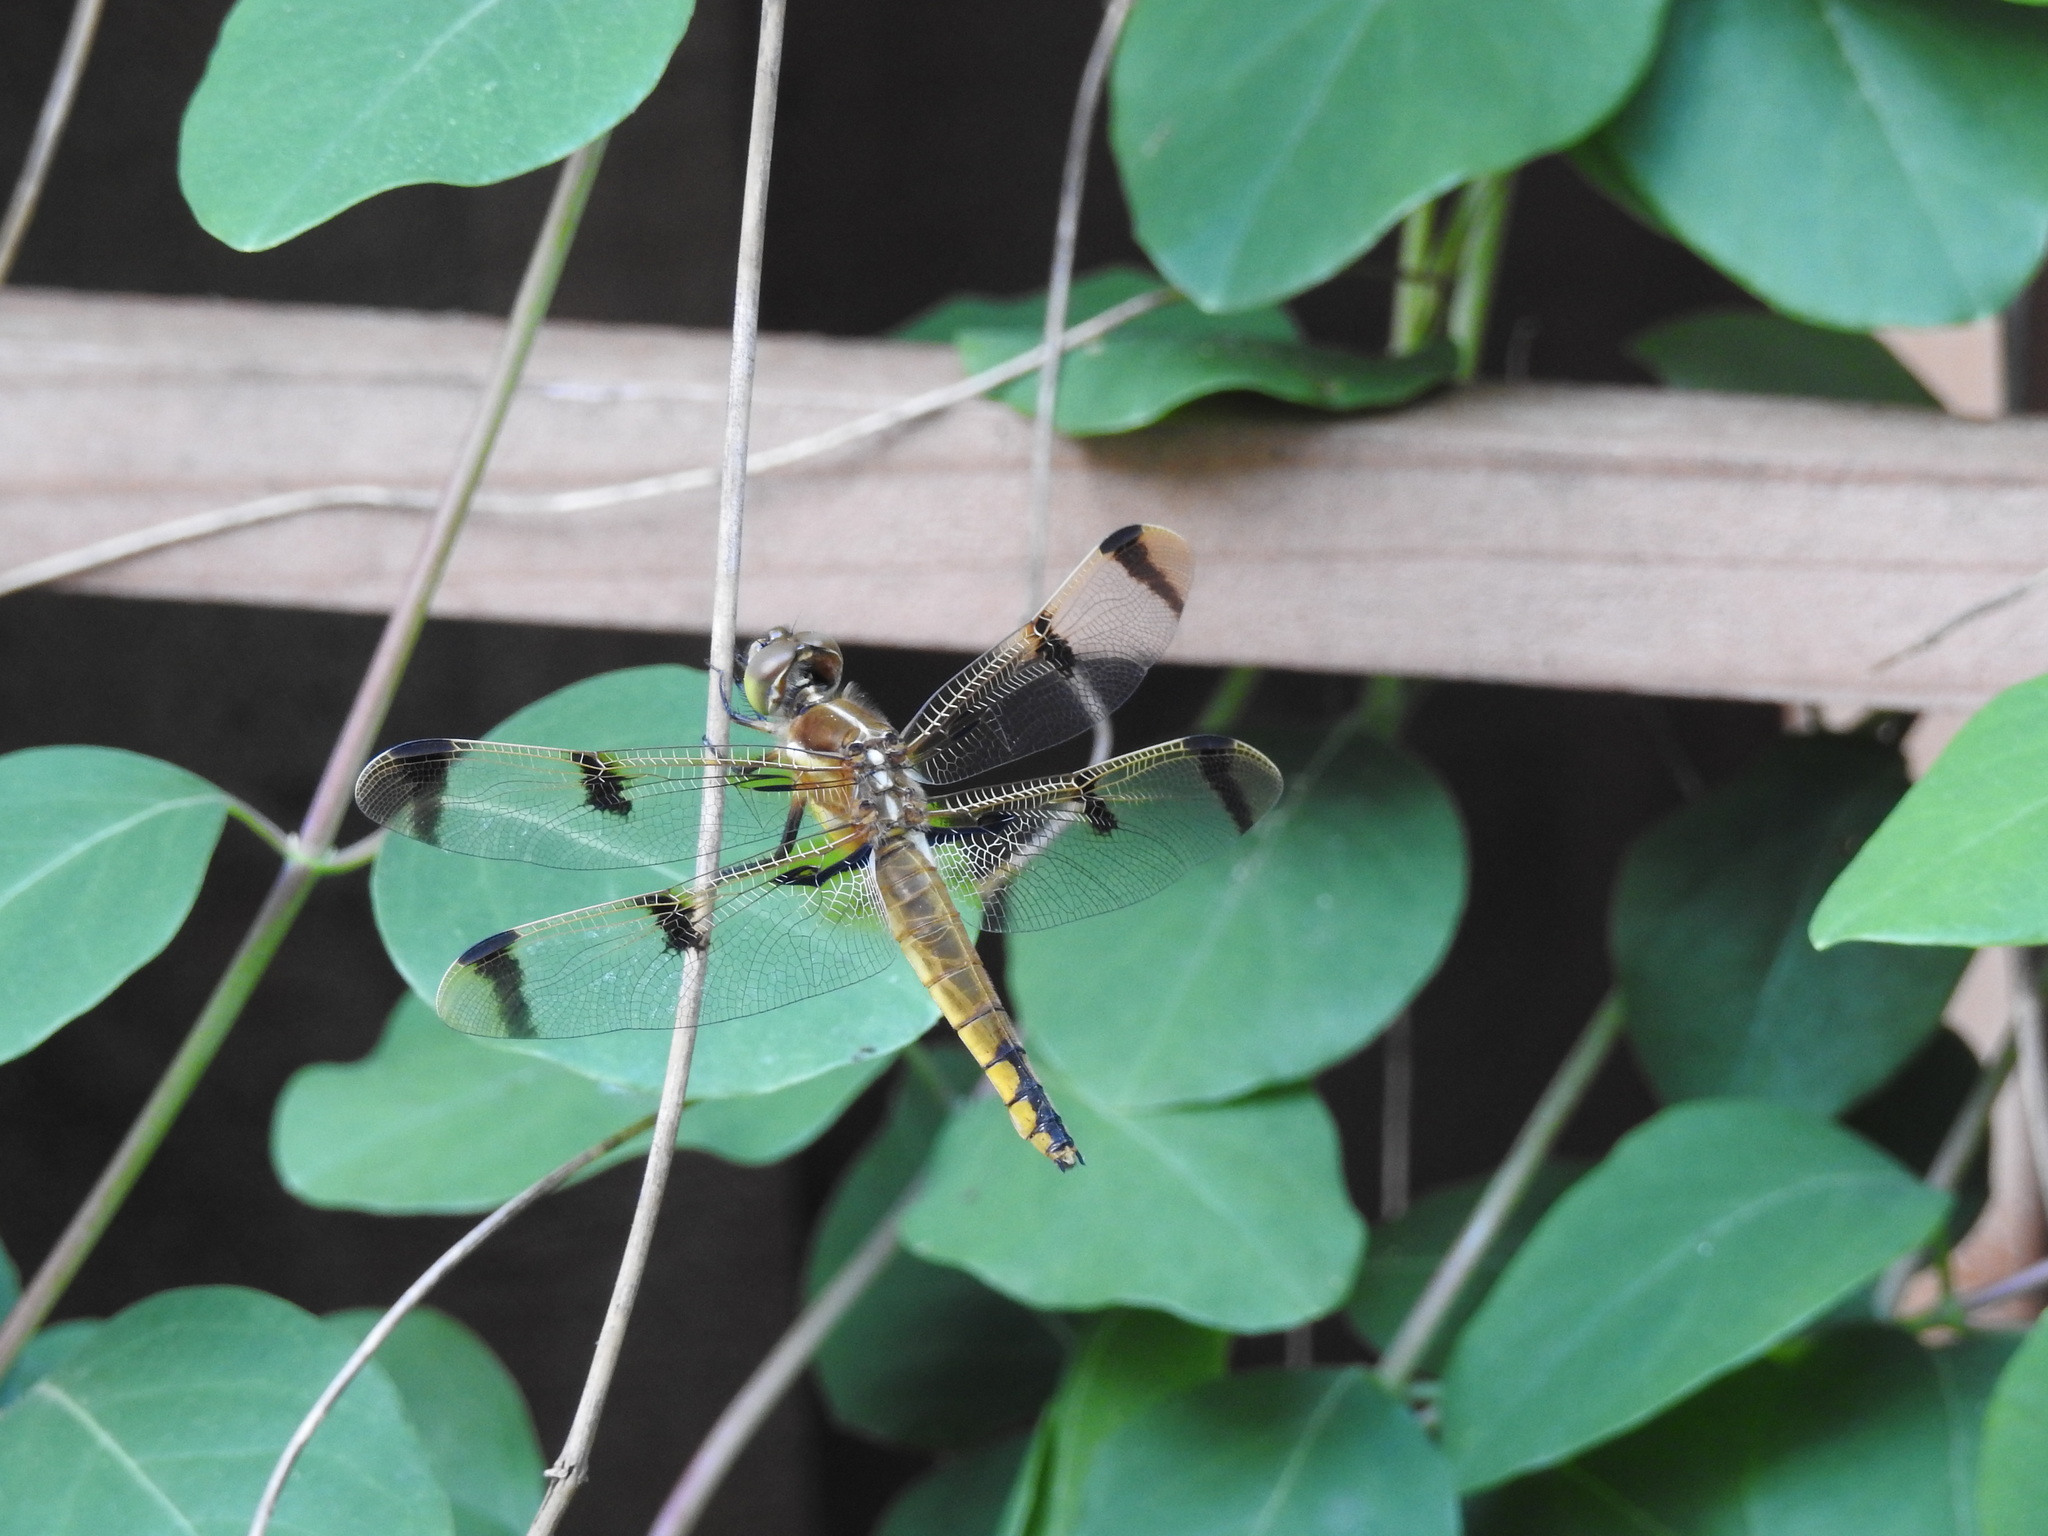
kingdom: Animalia
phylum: Arthropoda
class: Insecta
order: Odonata
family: Libellulidae
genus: Libellula
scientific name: Libellula semifasciata
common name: Painted skimmer
